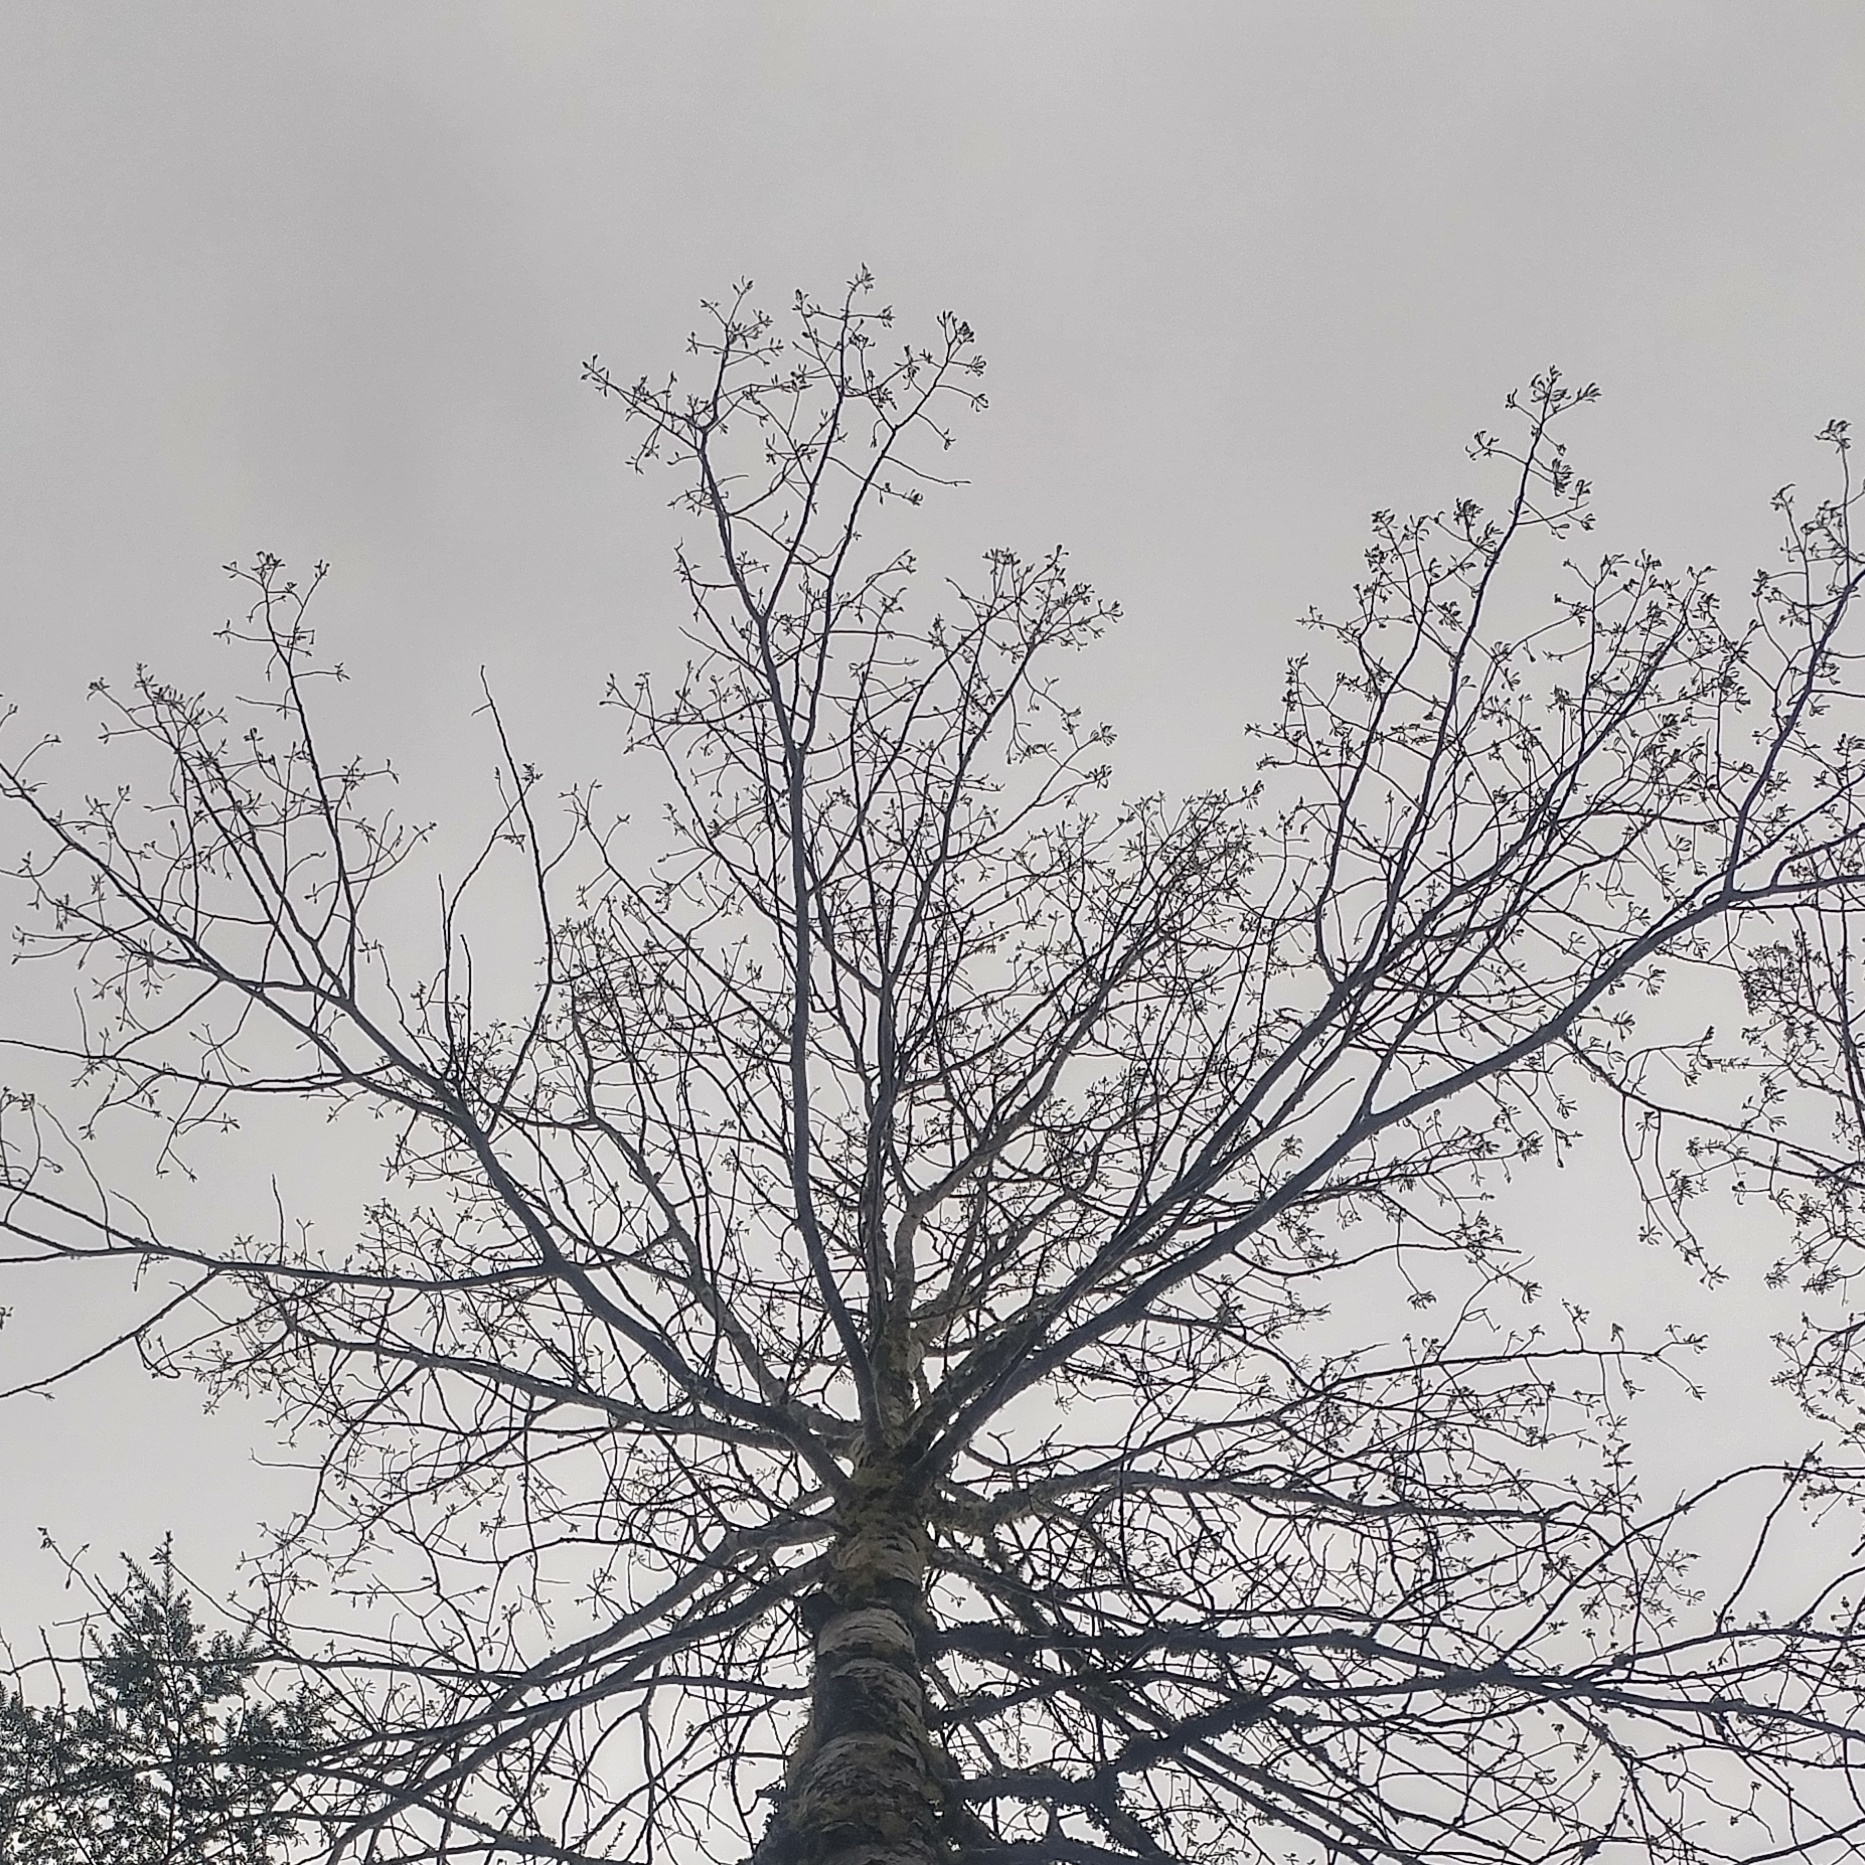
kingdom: Plantae
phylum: Tracheophyta
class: Magnoliopsida
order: Malpighiales
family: Salicaceae
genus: Populus
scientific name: Populus grandidentata
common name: Bigtooth aspen
